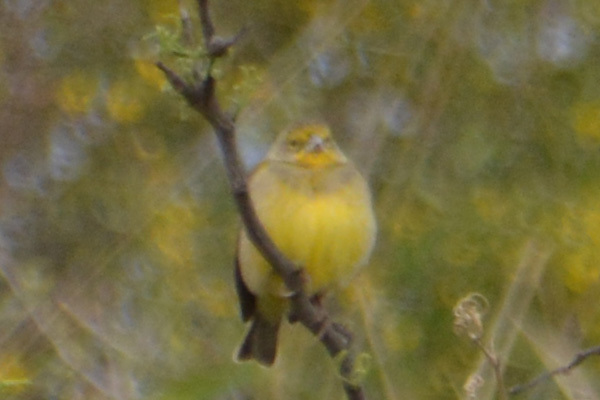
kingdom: Animalia
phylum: Chordata
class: Aves
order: Passeriformes
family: Thraupidae
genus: Sicalis
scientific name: Sicalis luteola
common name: Grassland yellow-finch
